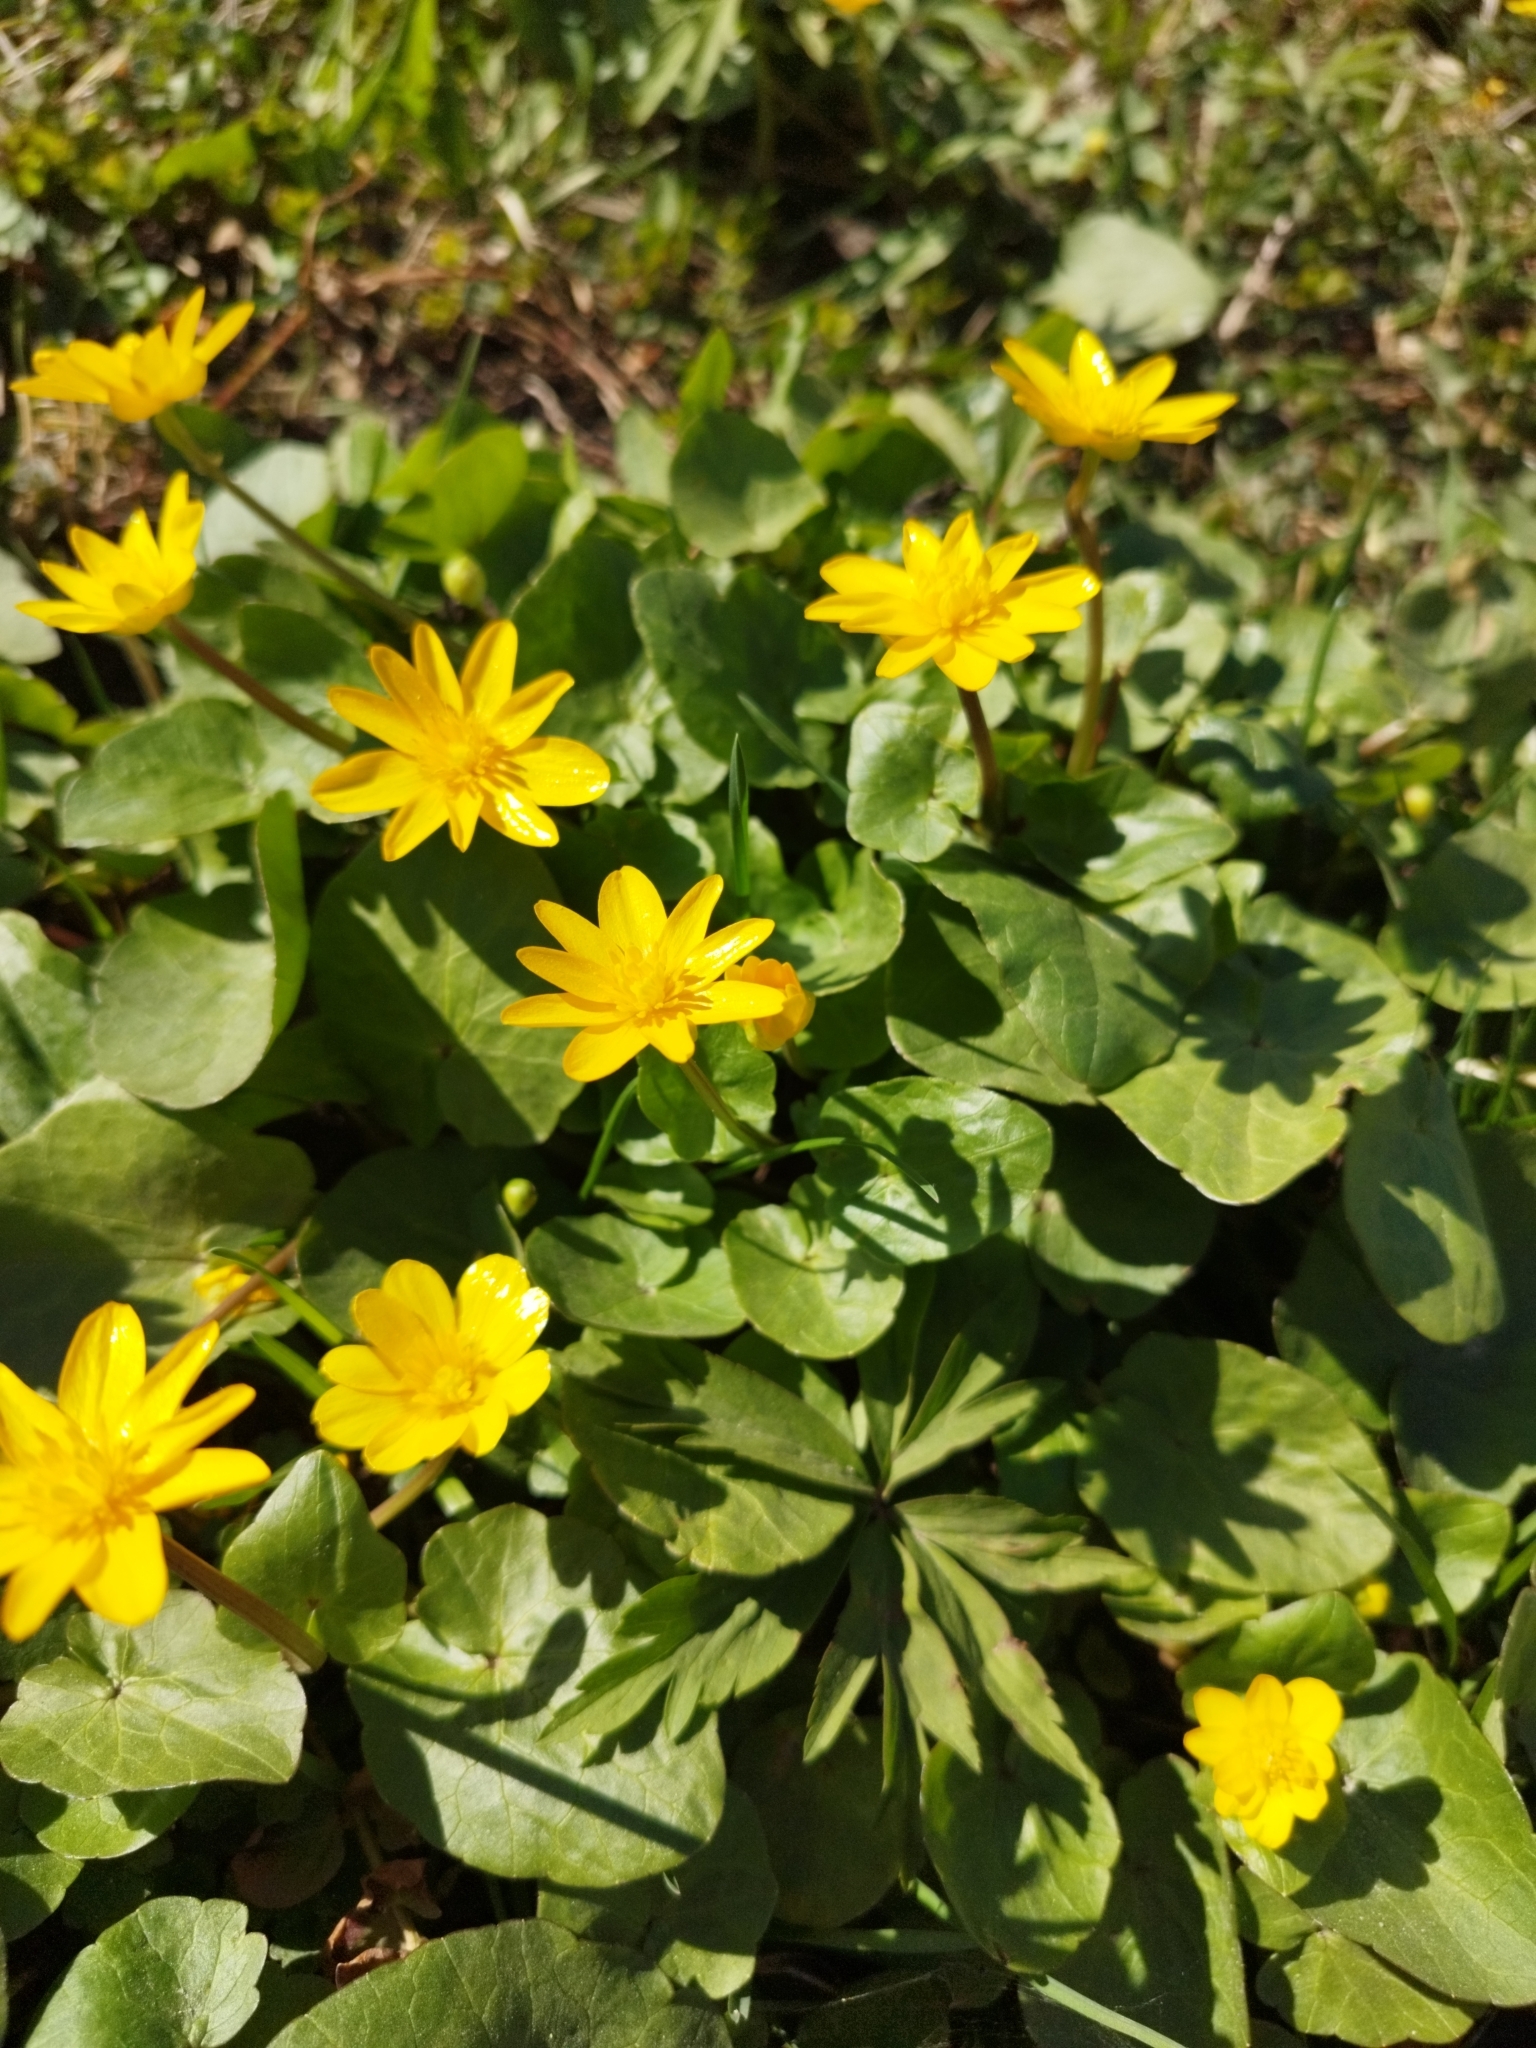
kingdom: Plantae
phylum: Tracheophyta
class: Magnoliopsida
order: Ranunculales
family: Ranunculaceae
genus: Ficaria
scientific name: Ficaria verna
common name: Lesser celandine
